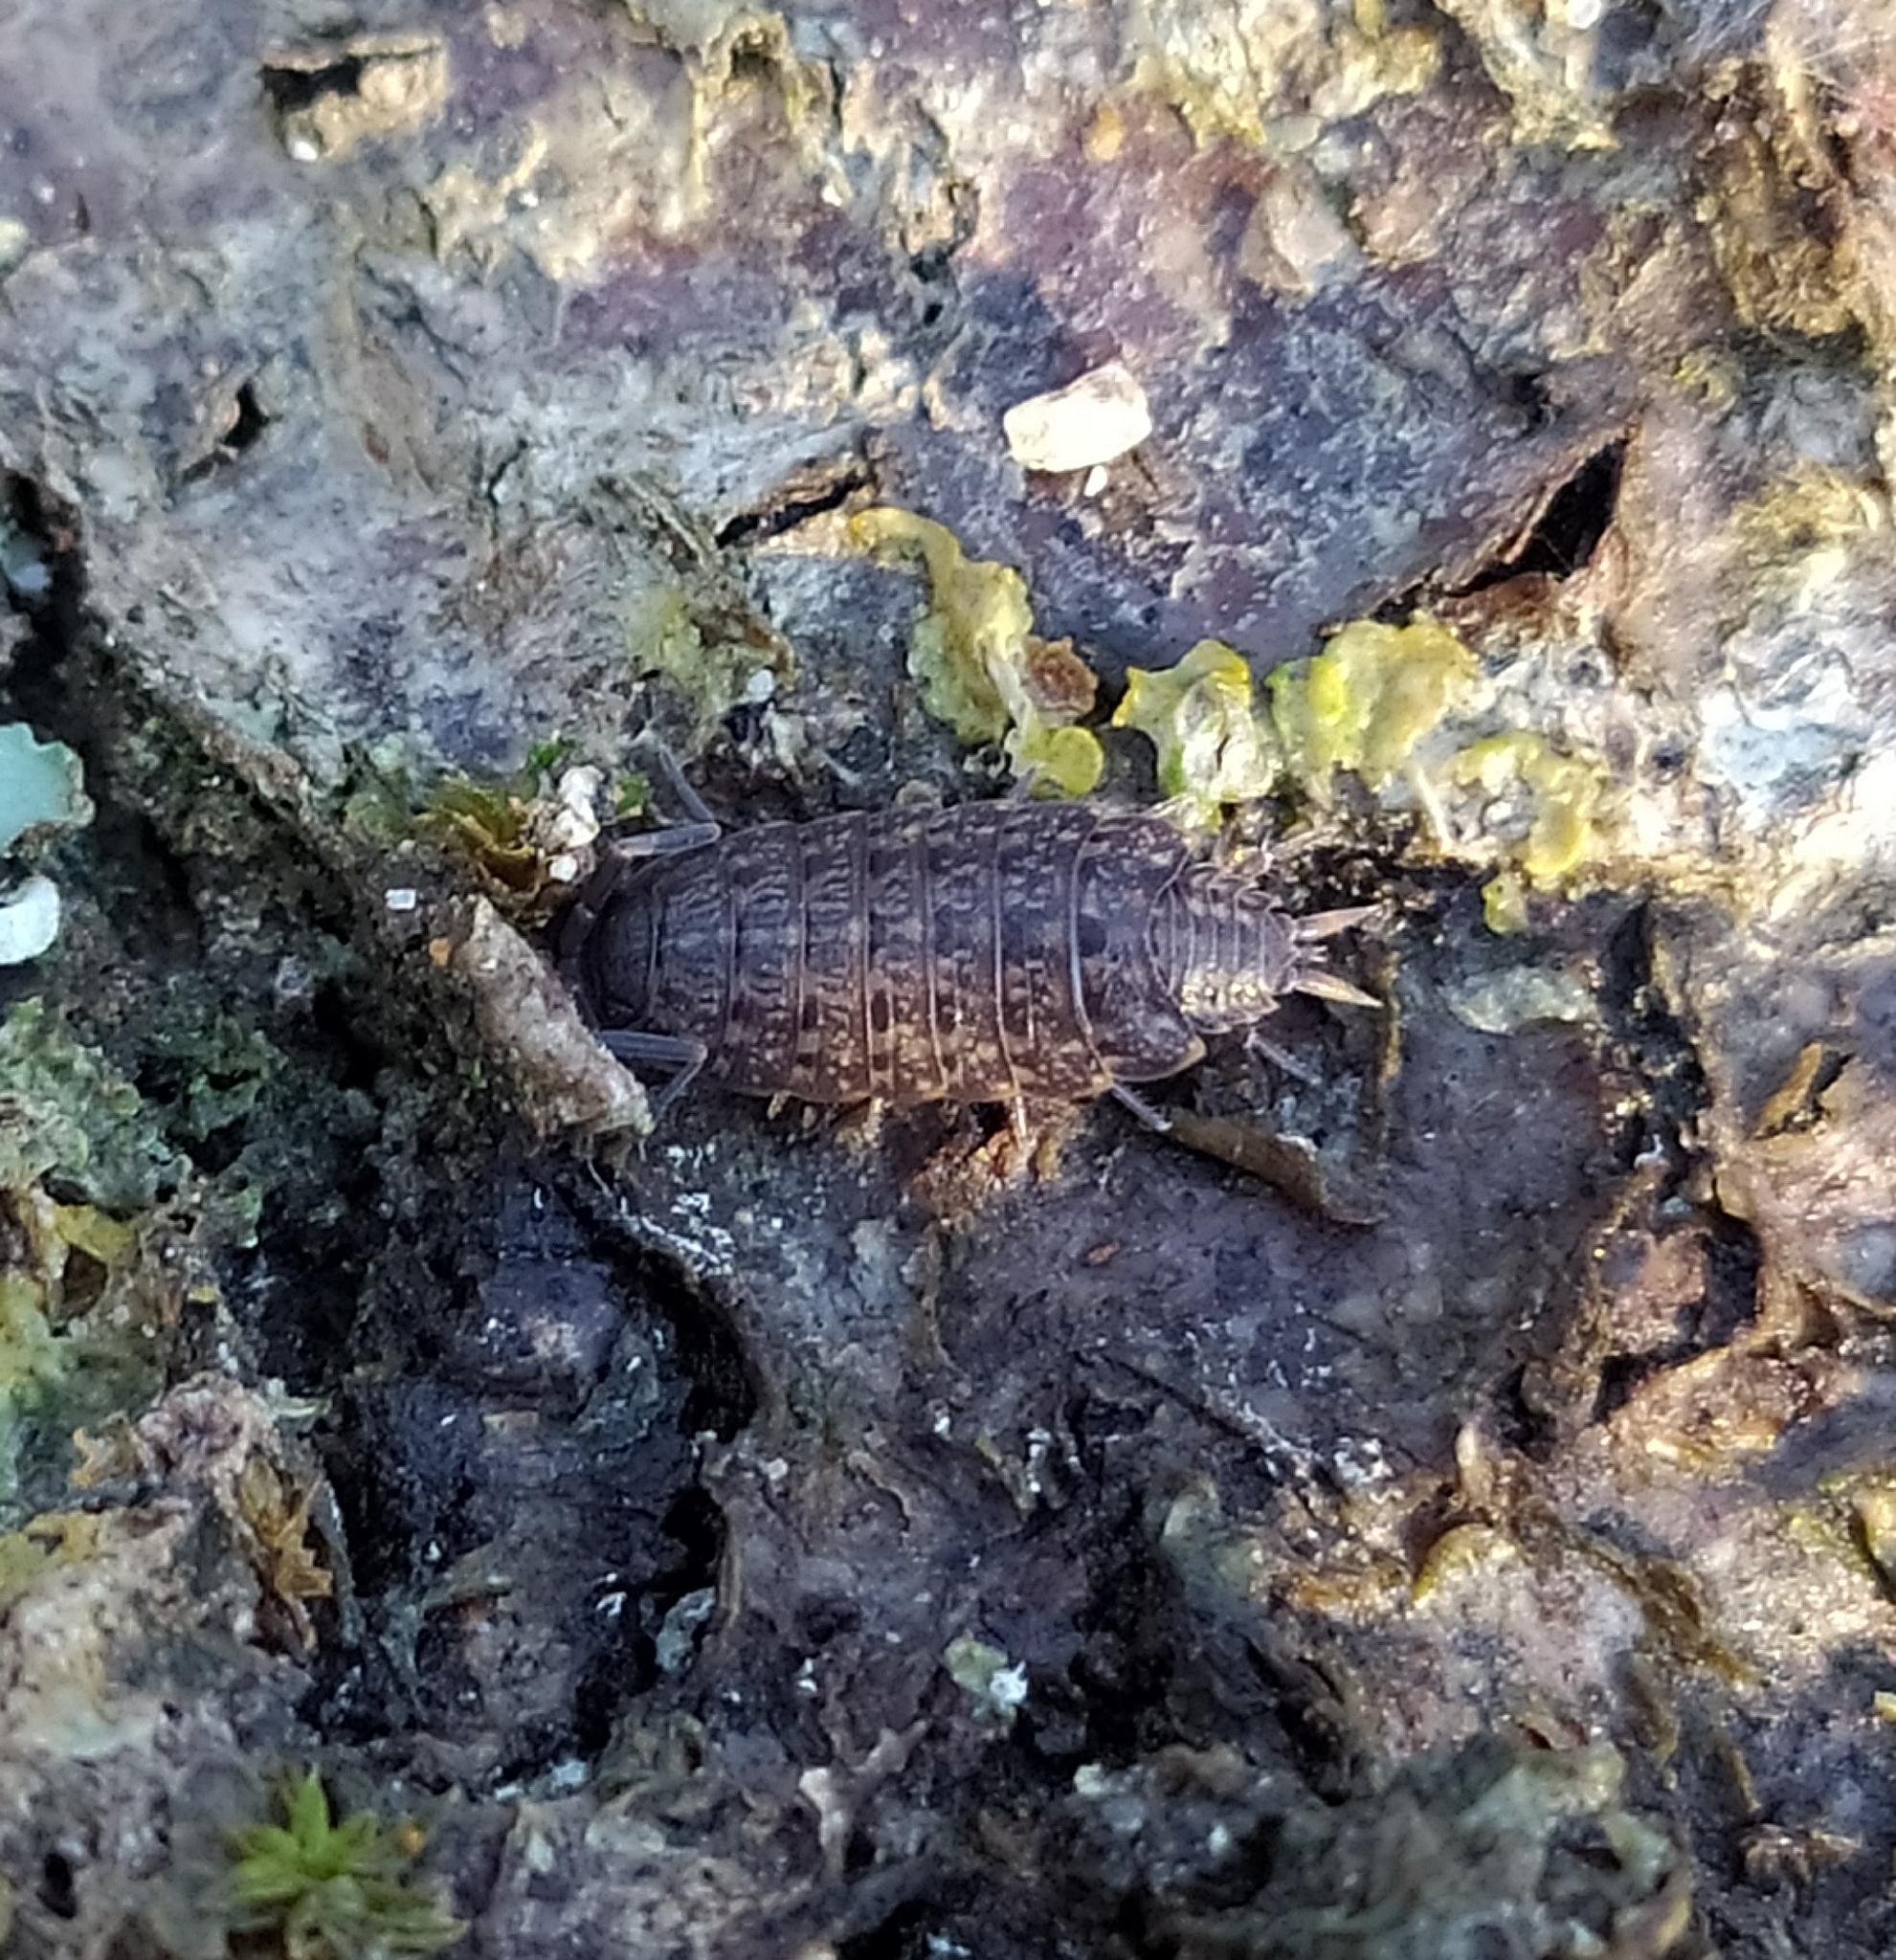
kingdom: Animalia
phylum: Arthropoda
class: Malacostraca
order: Isopoda
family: Agnaridae
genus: Orthometopon
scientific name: Orthometopon dalmatinum
